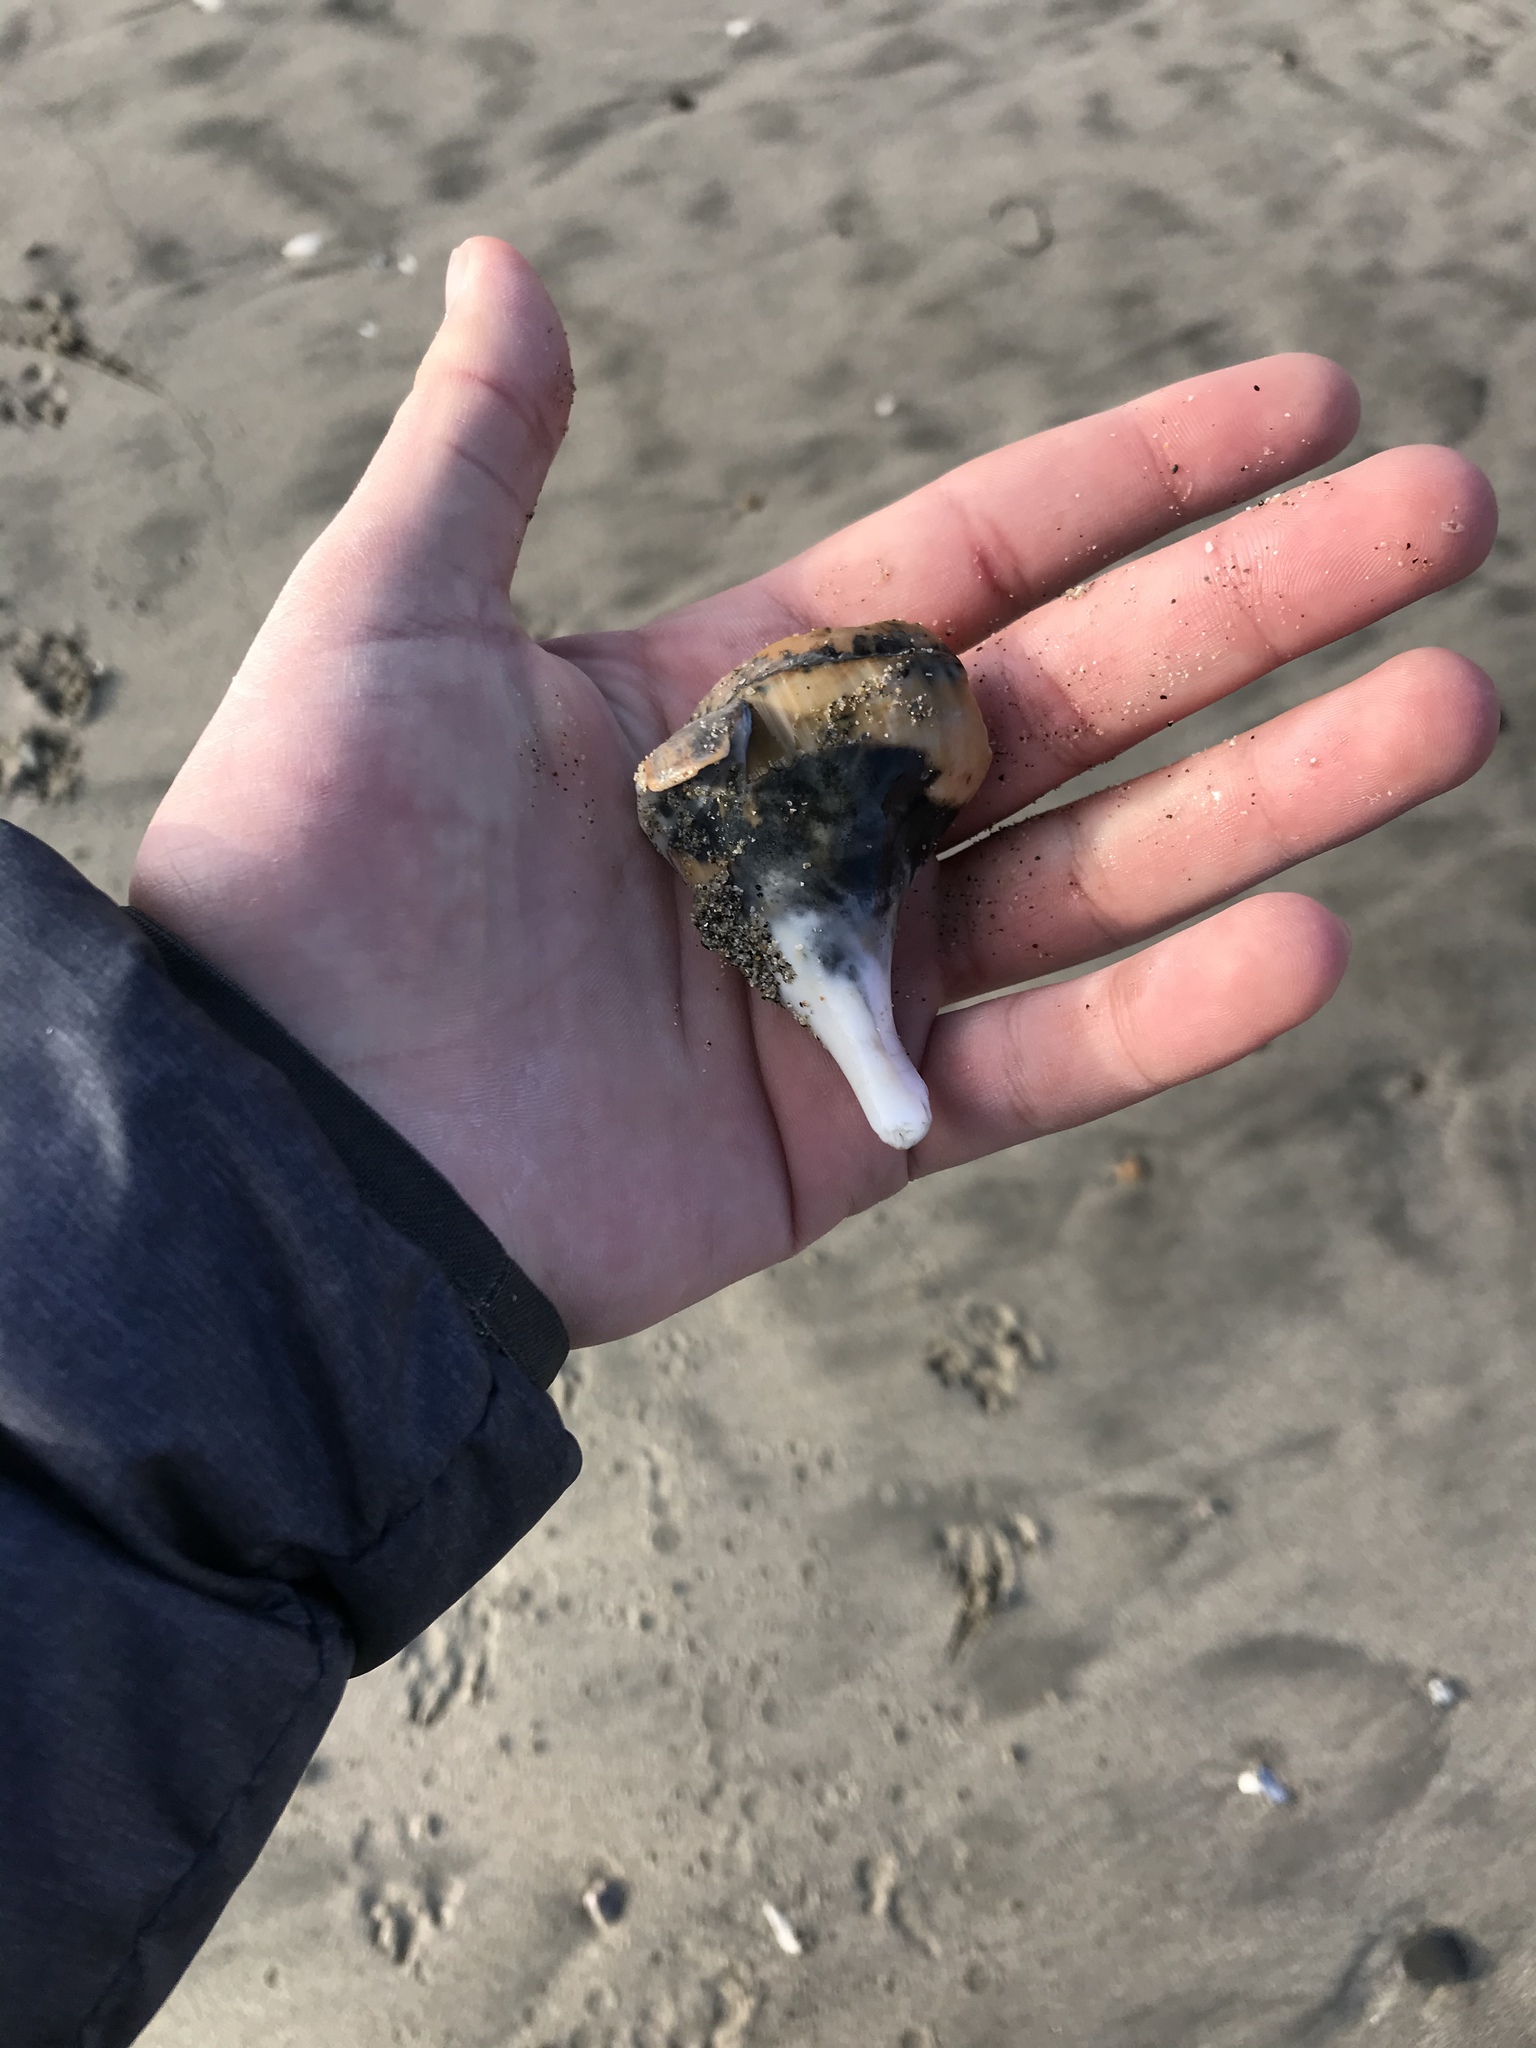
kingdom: Animalia
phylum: Mollusca
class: Gastropoda
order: Littorinimorpha
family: Naticidae
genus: Neverita
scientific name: Neverita lewisii
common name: Lewis' moonsnail
